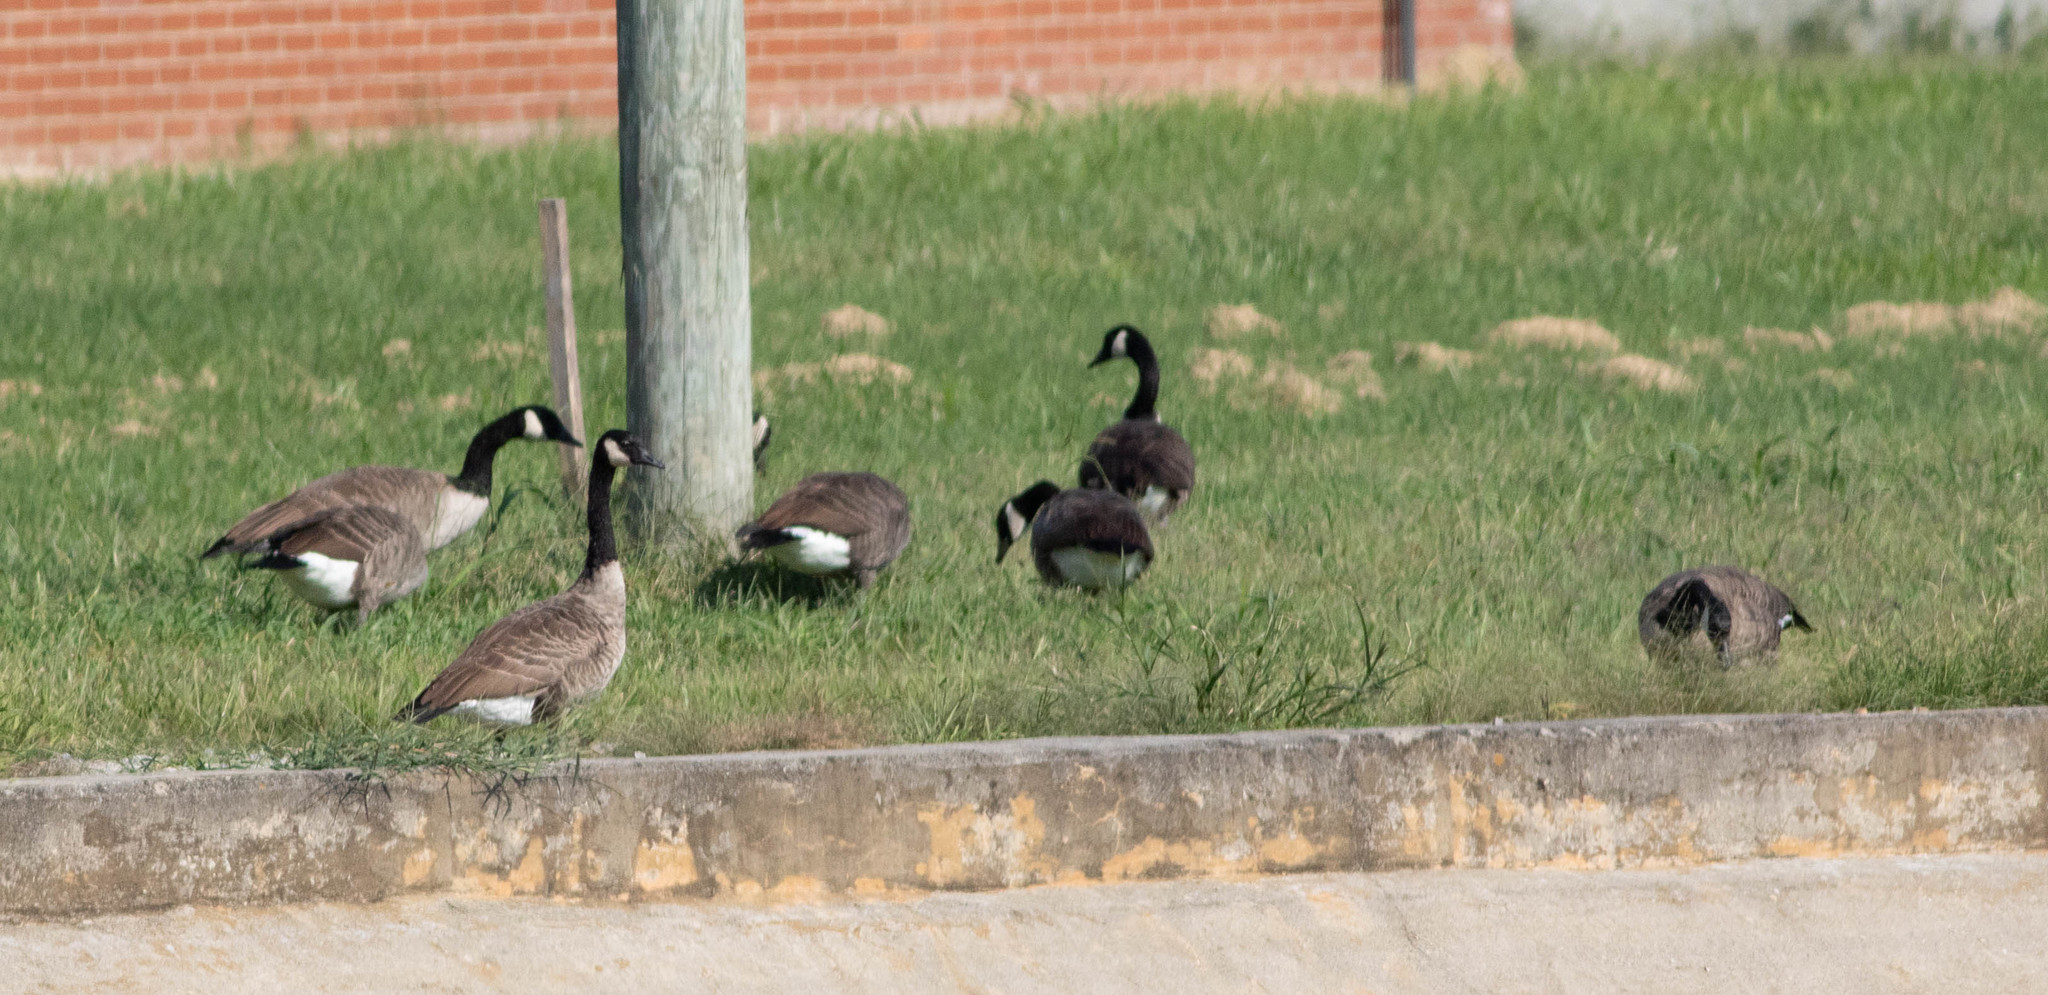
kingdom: Animalia
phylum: Chordata
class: Aves
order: Anseriformes
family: Anatidae
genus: Branta
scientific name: Branta canadensis
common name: Canada goose
